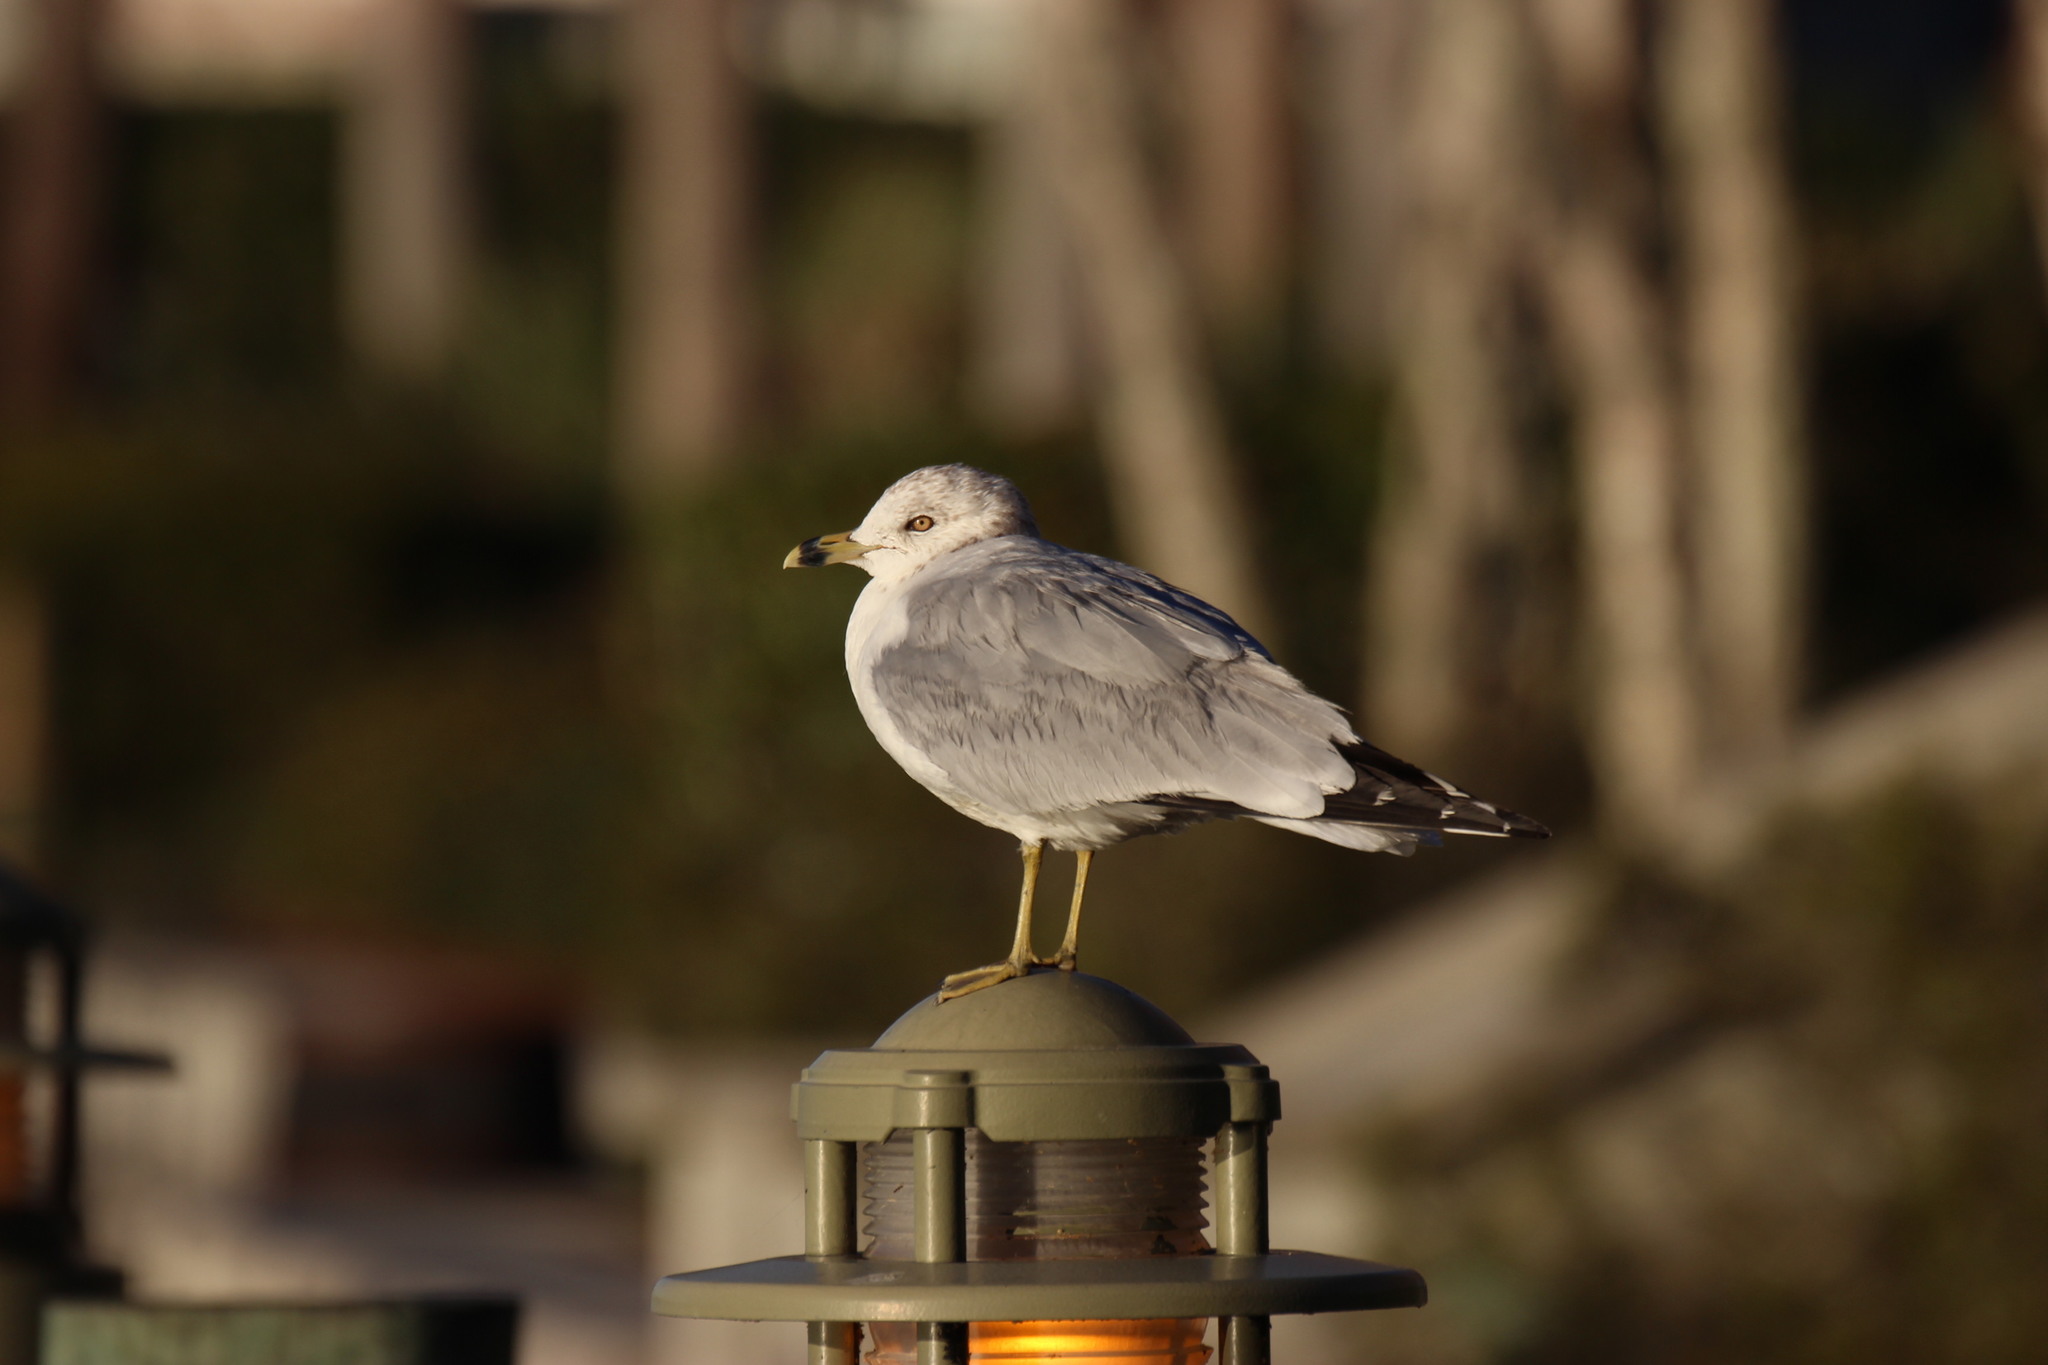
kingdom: Animalia
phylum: Chordata
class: Aves
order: Charadriiformes
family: Laridae
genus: Larus
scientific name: Larus delawarensis
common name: Ring-billed gull
